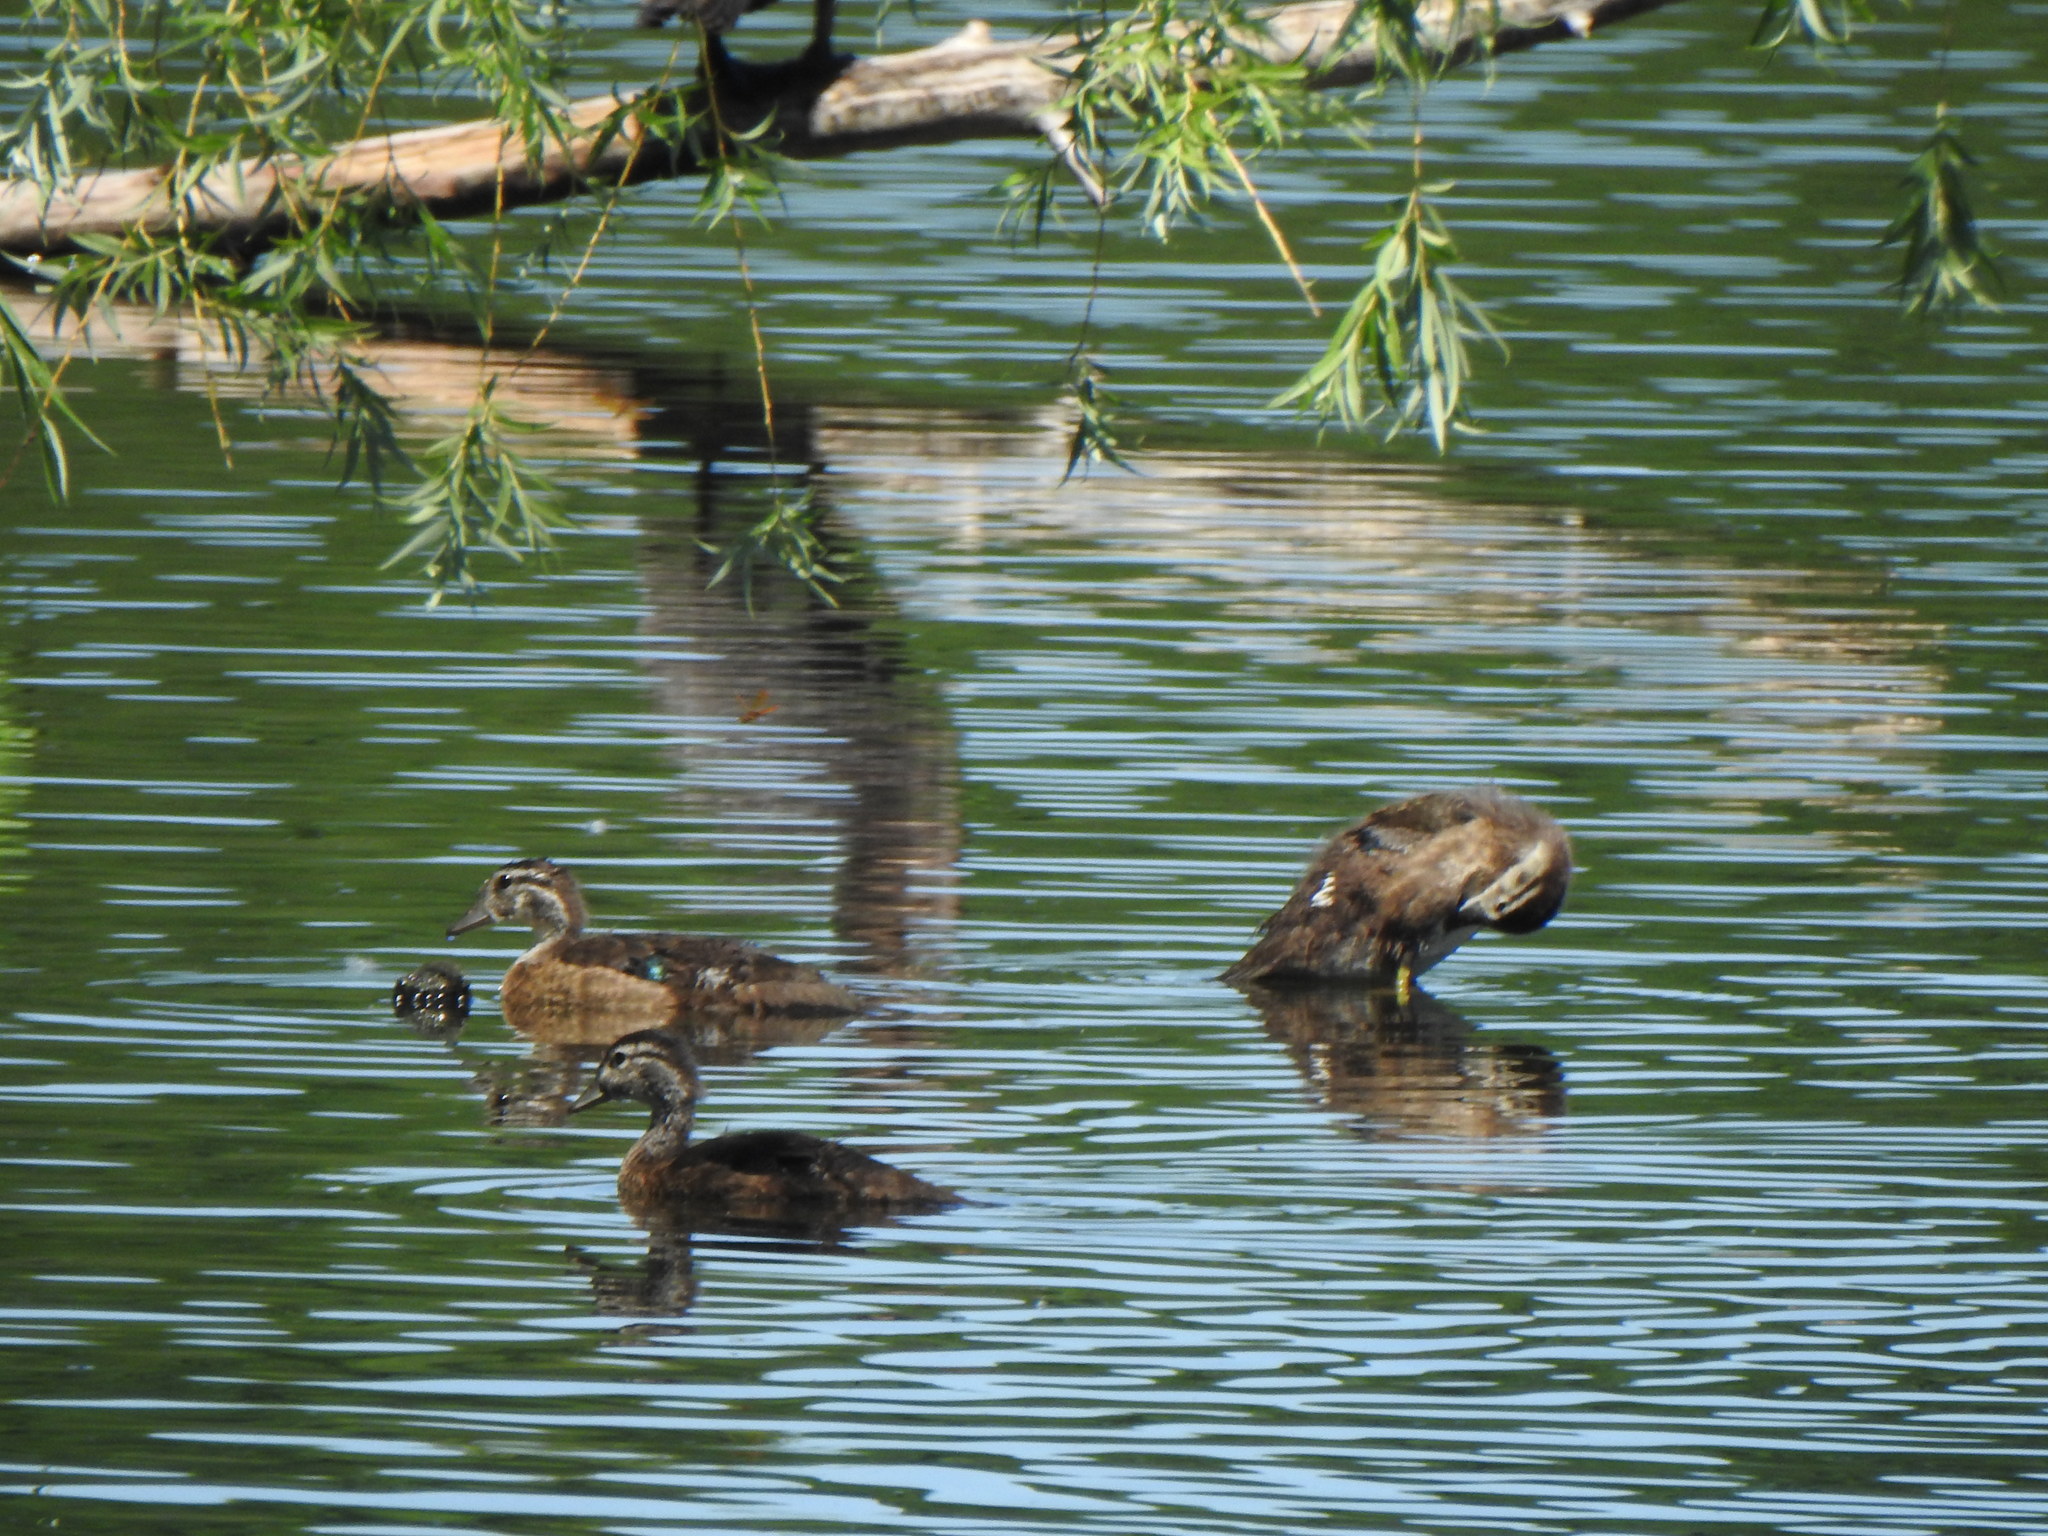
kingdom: Animalia
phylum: Chordata
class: Aves
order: Anseriformes
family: Anatidae
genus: Aix
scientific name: Aix sponsa
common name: Wood duck
